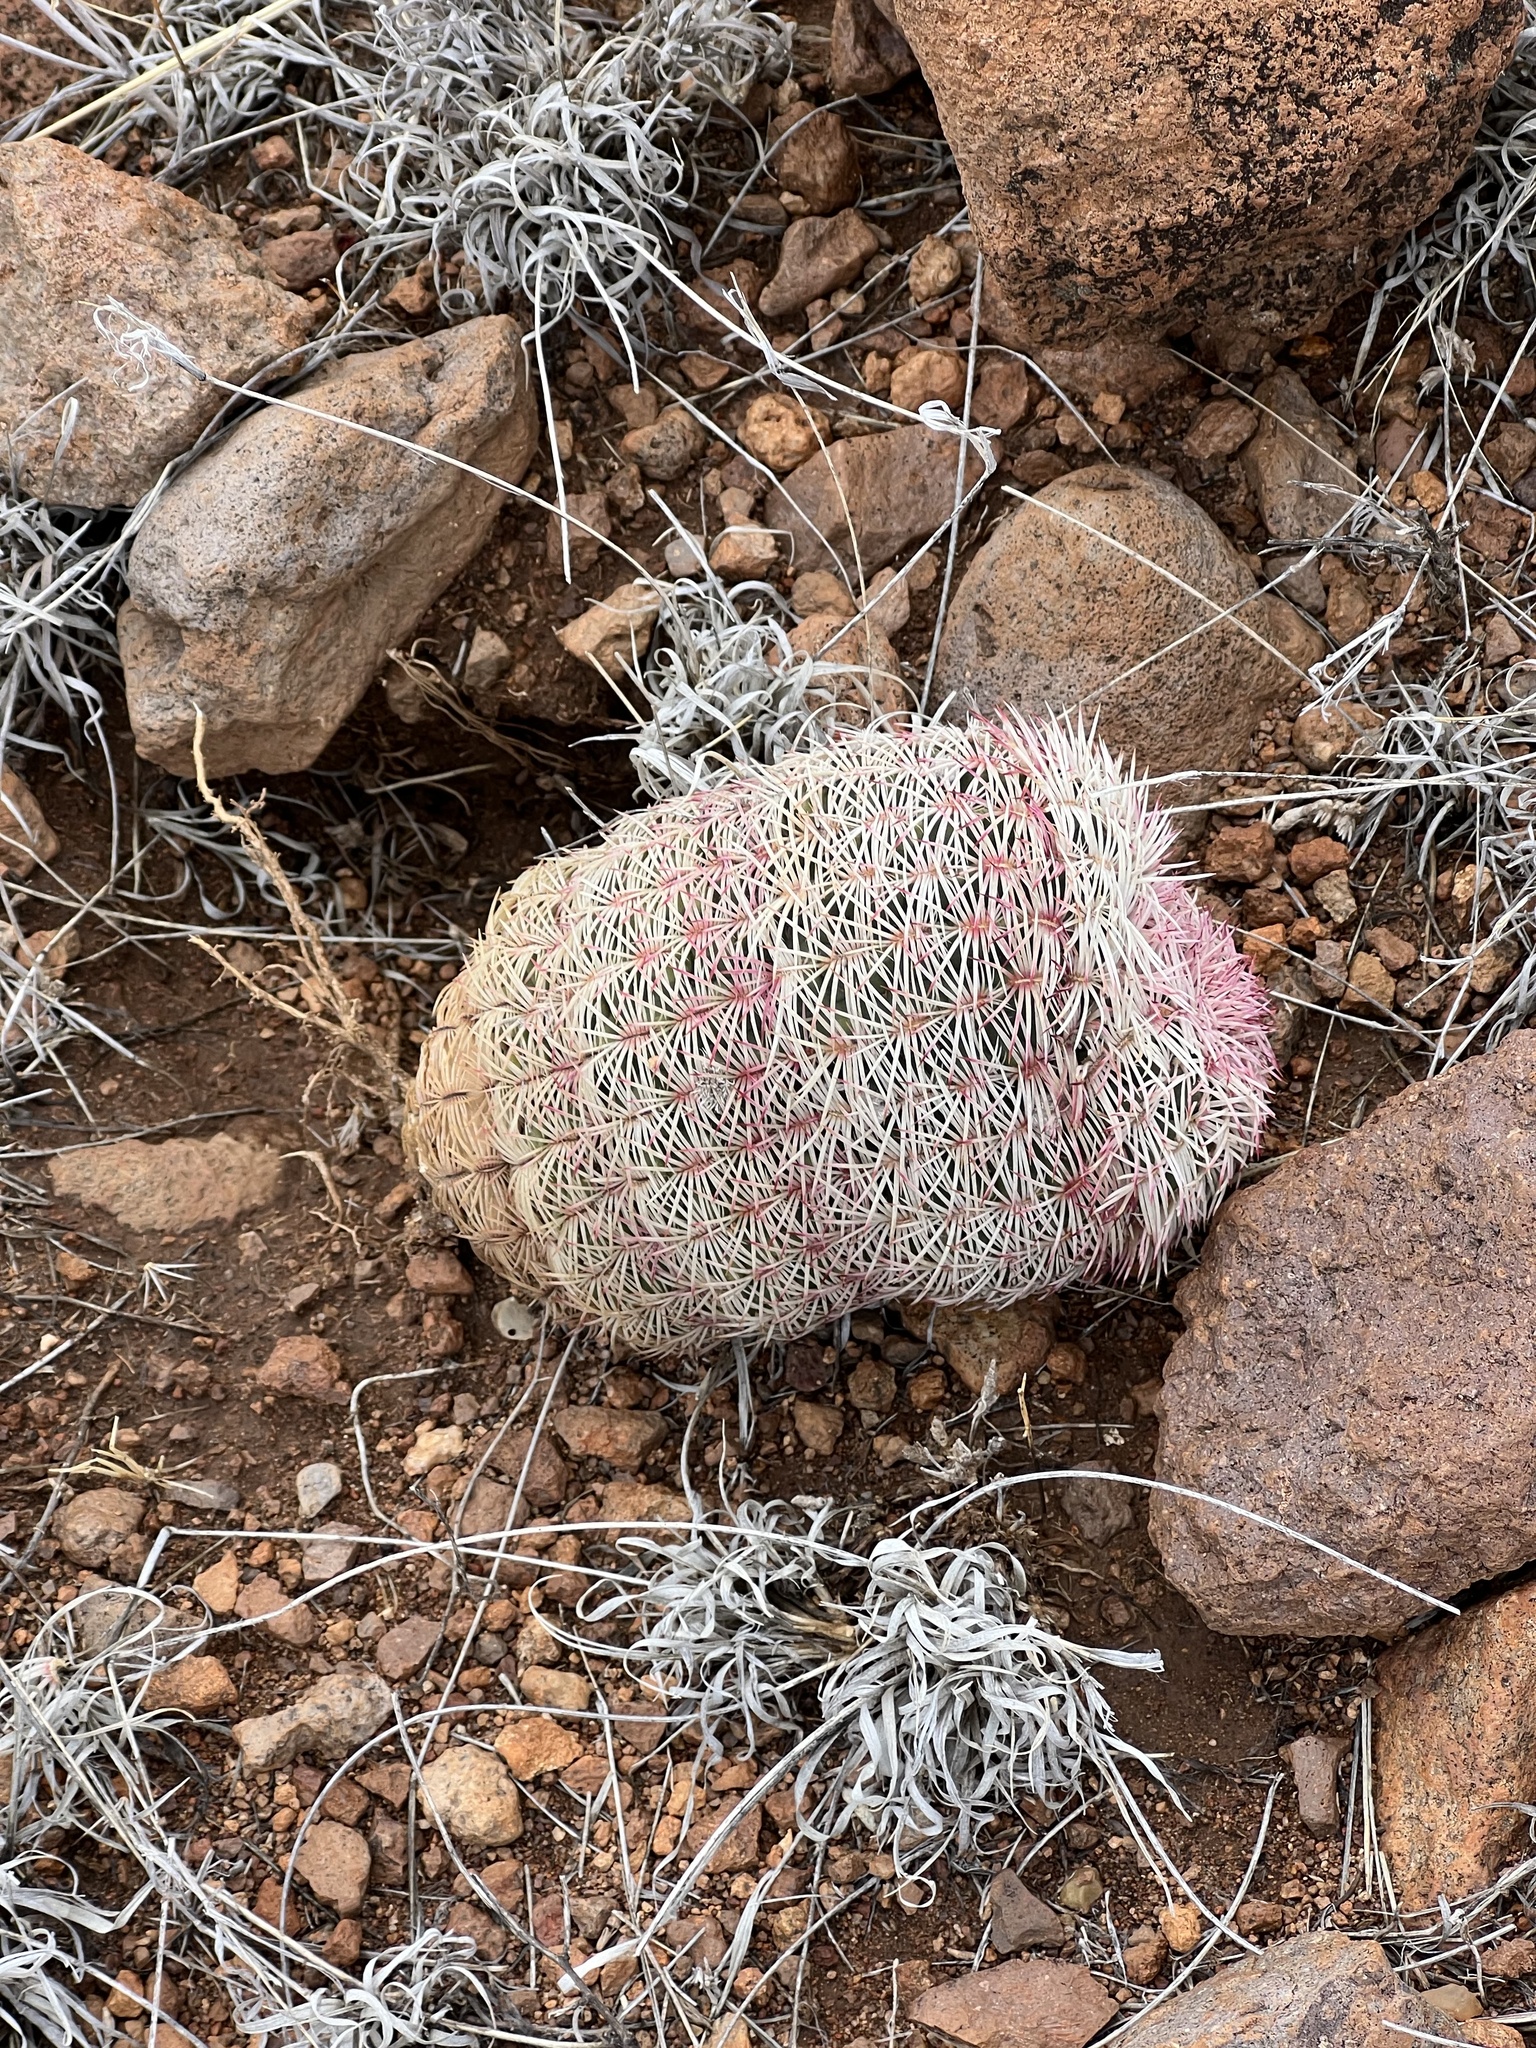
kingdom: Plantae
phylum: Tracheophyta
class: Magnoliopsida
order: Caryophyllales
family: Cactaceae
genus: Echinocereus
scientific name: Echinocereus rigidissimus
